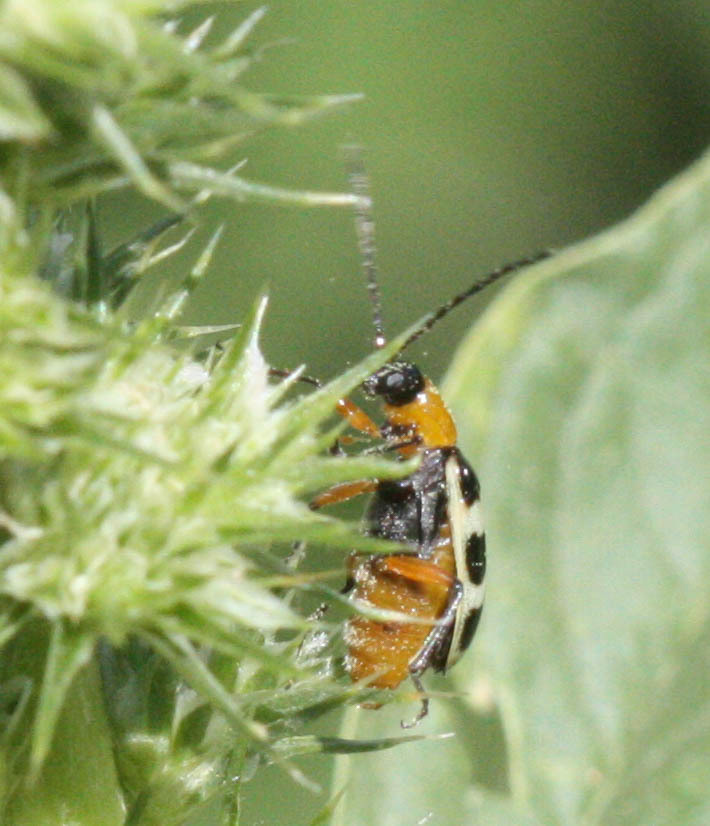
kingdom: Animalia
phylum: Arthropoda
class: Insecta
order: Coleoptera
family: Chrysomelidae
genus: Paranapiacaba
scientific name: Paranapiacaba tricincta
